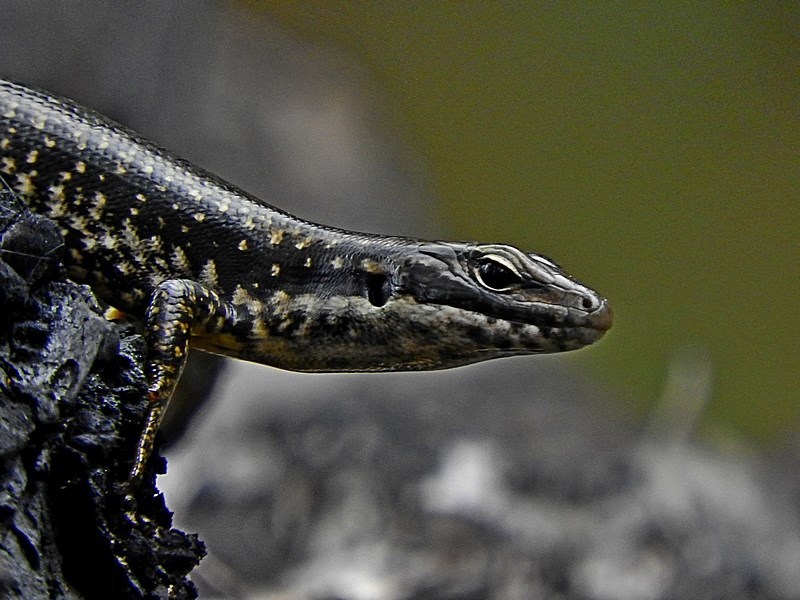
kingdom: Animalia
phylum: Chordata
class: Squamata
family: Scincidae
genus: Eulamprus
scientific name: Eulamprus heatwolei
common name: Warm-temperate water-skink
